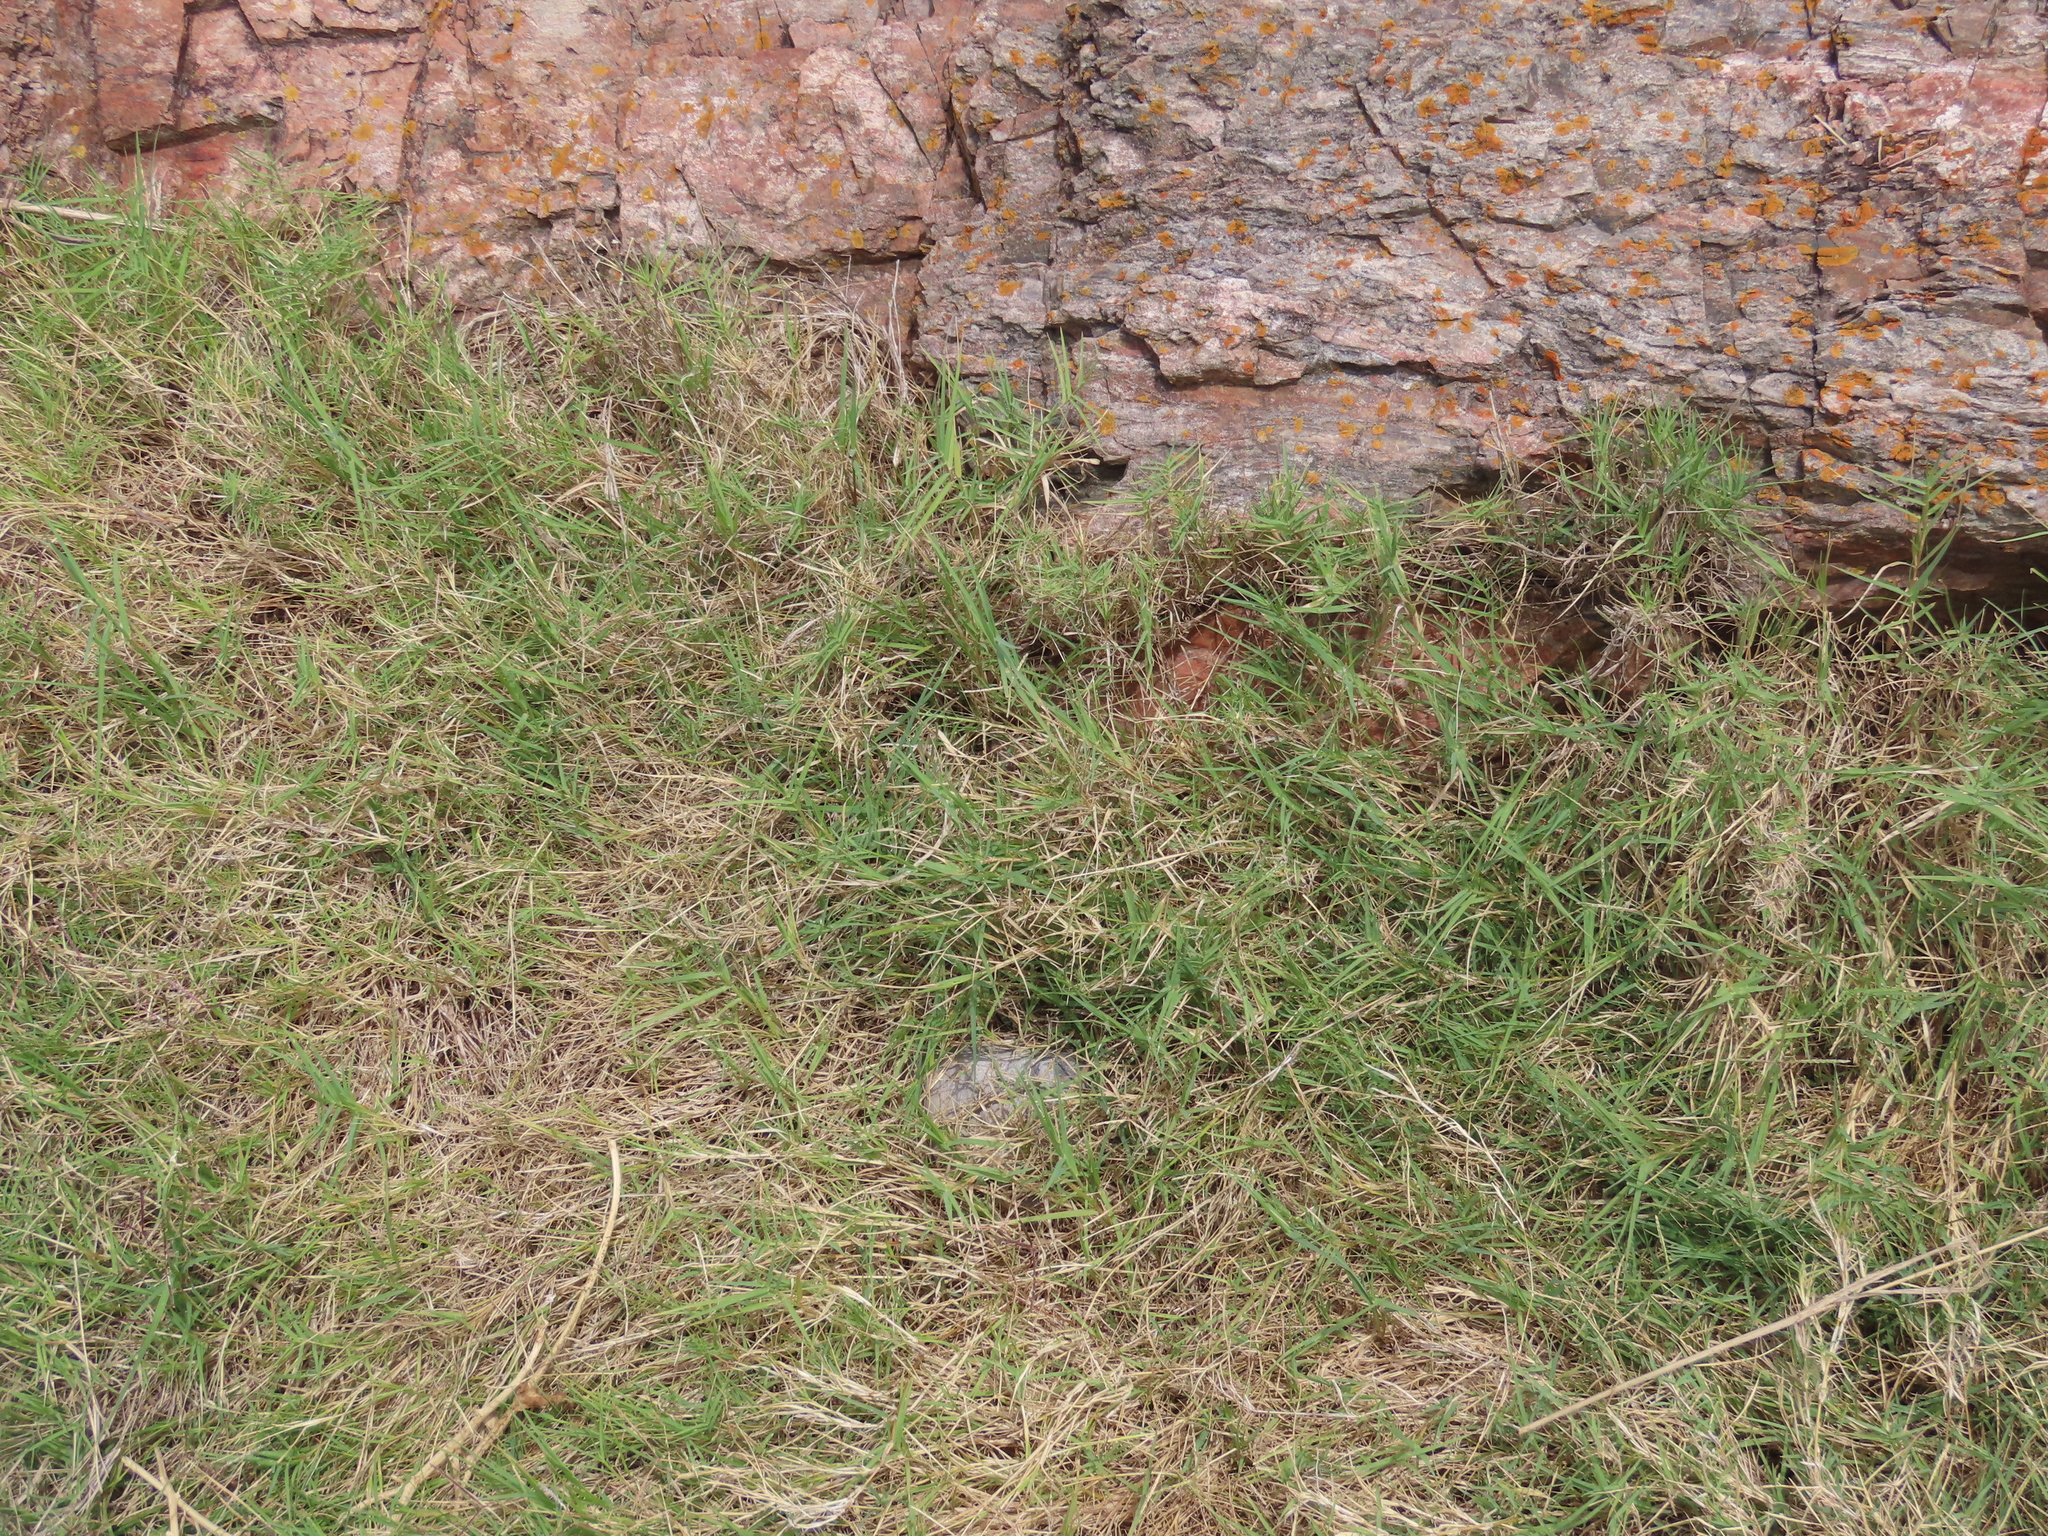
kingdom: Plantae
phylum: Tracheophyta
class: Liliopsida
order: Poales
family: Poaceae
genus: Cynodon
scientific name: Cynodon dactylon
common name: Bermuda grass
